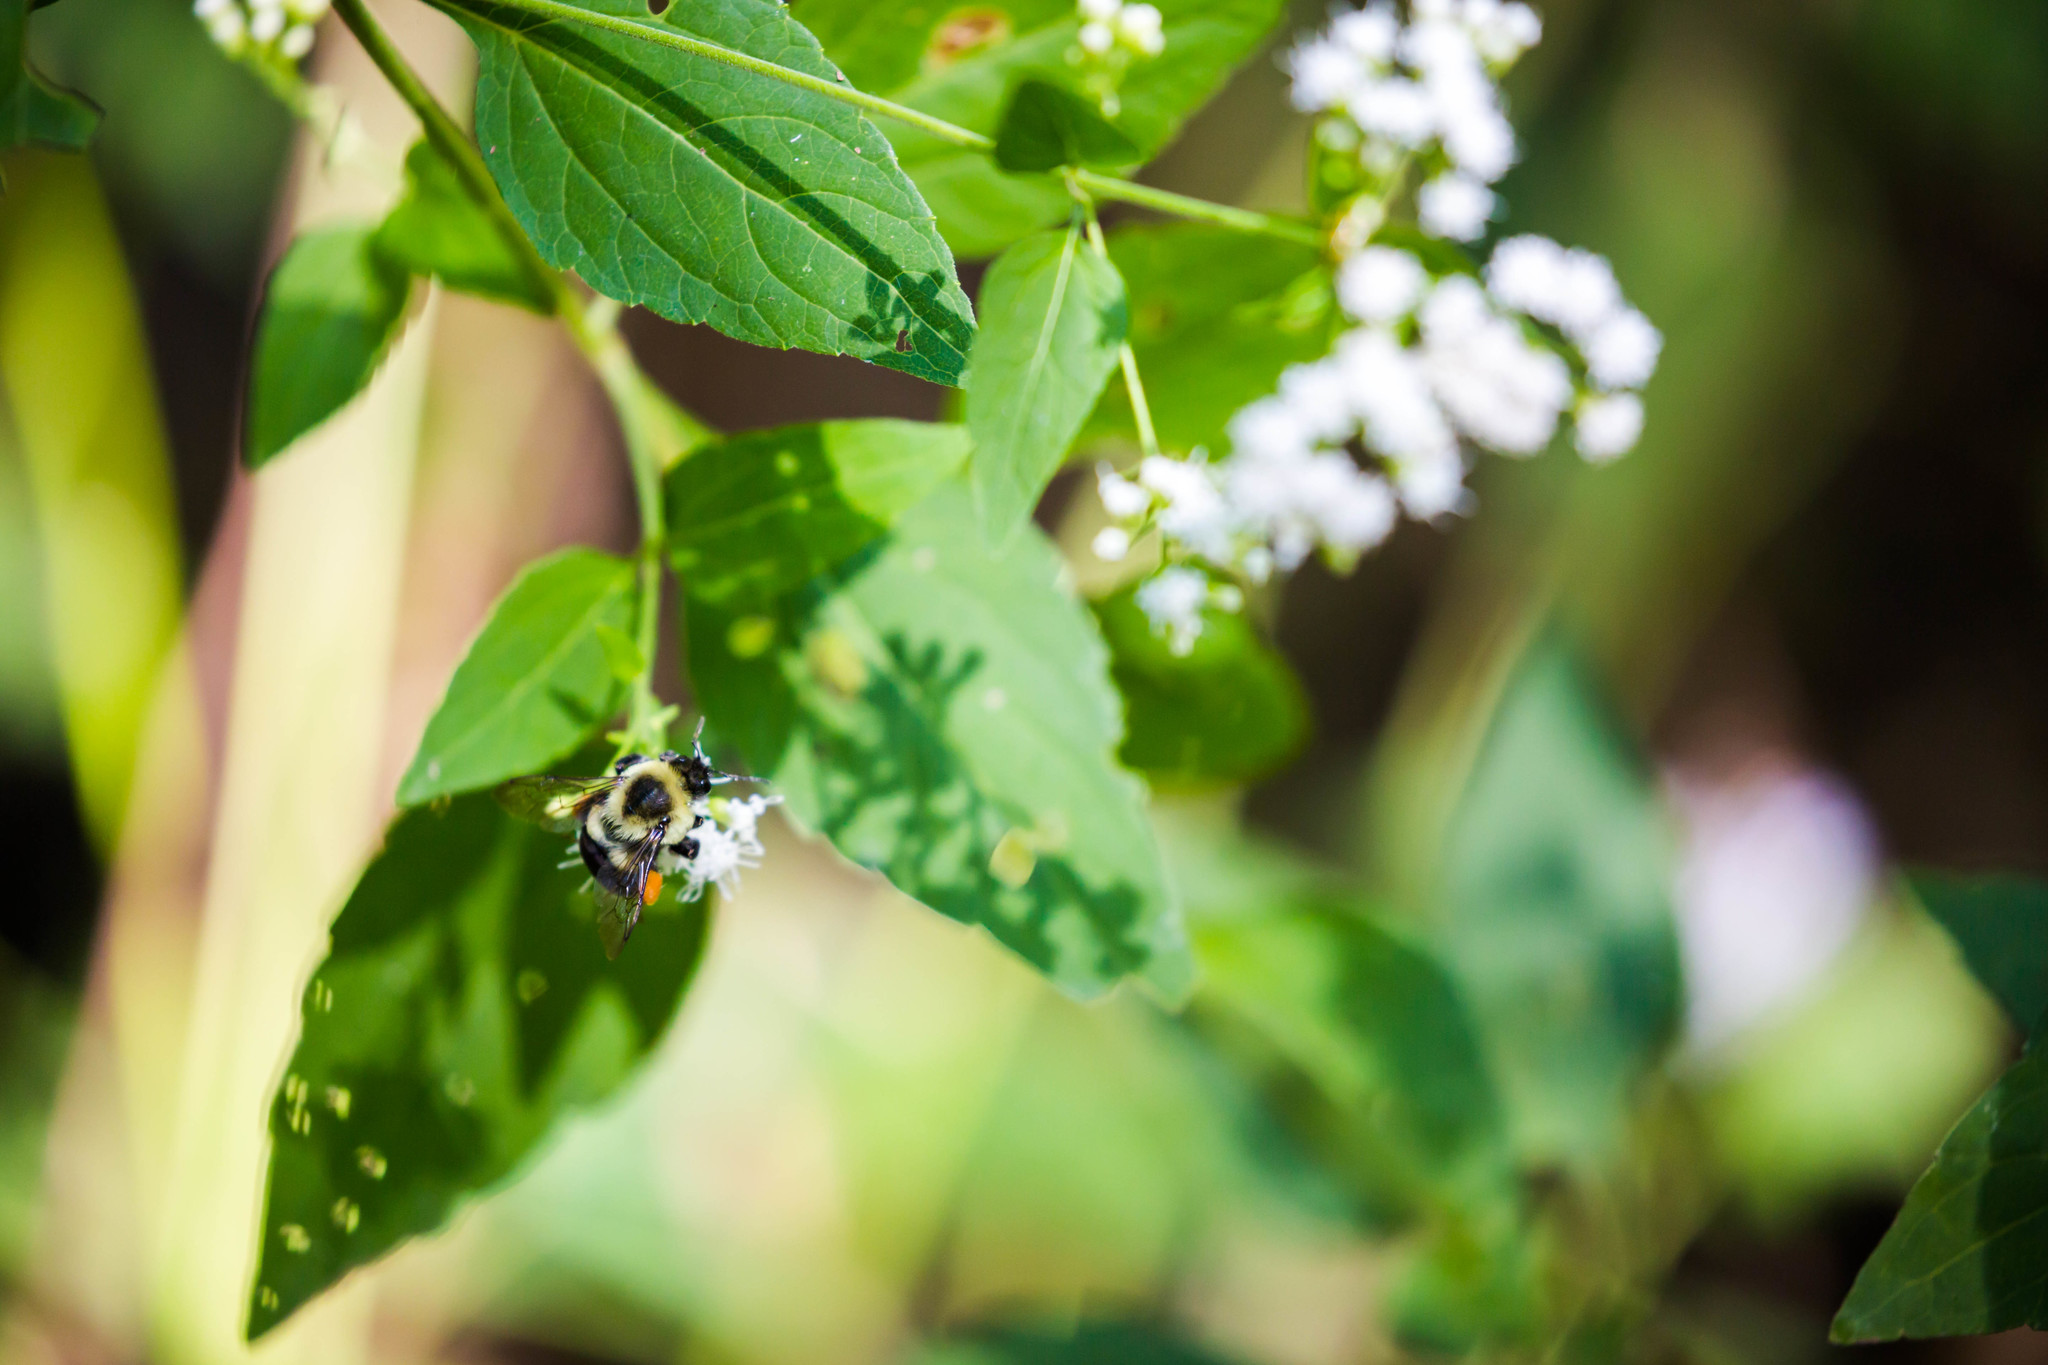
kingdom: Animalia
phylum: Arthropoda
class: Insecta
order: Hymenoptera
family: Apidae
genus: Bombus
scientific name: Bombus impatiens
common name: Common eastern bumble bee
